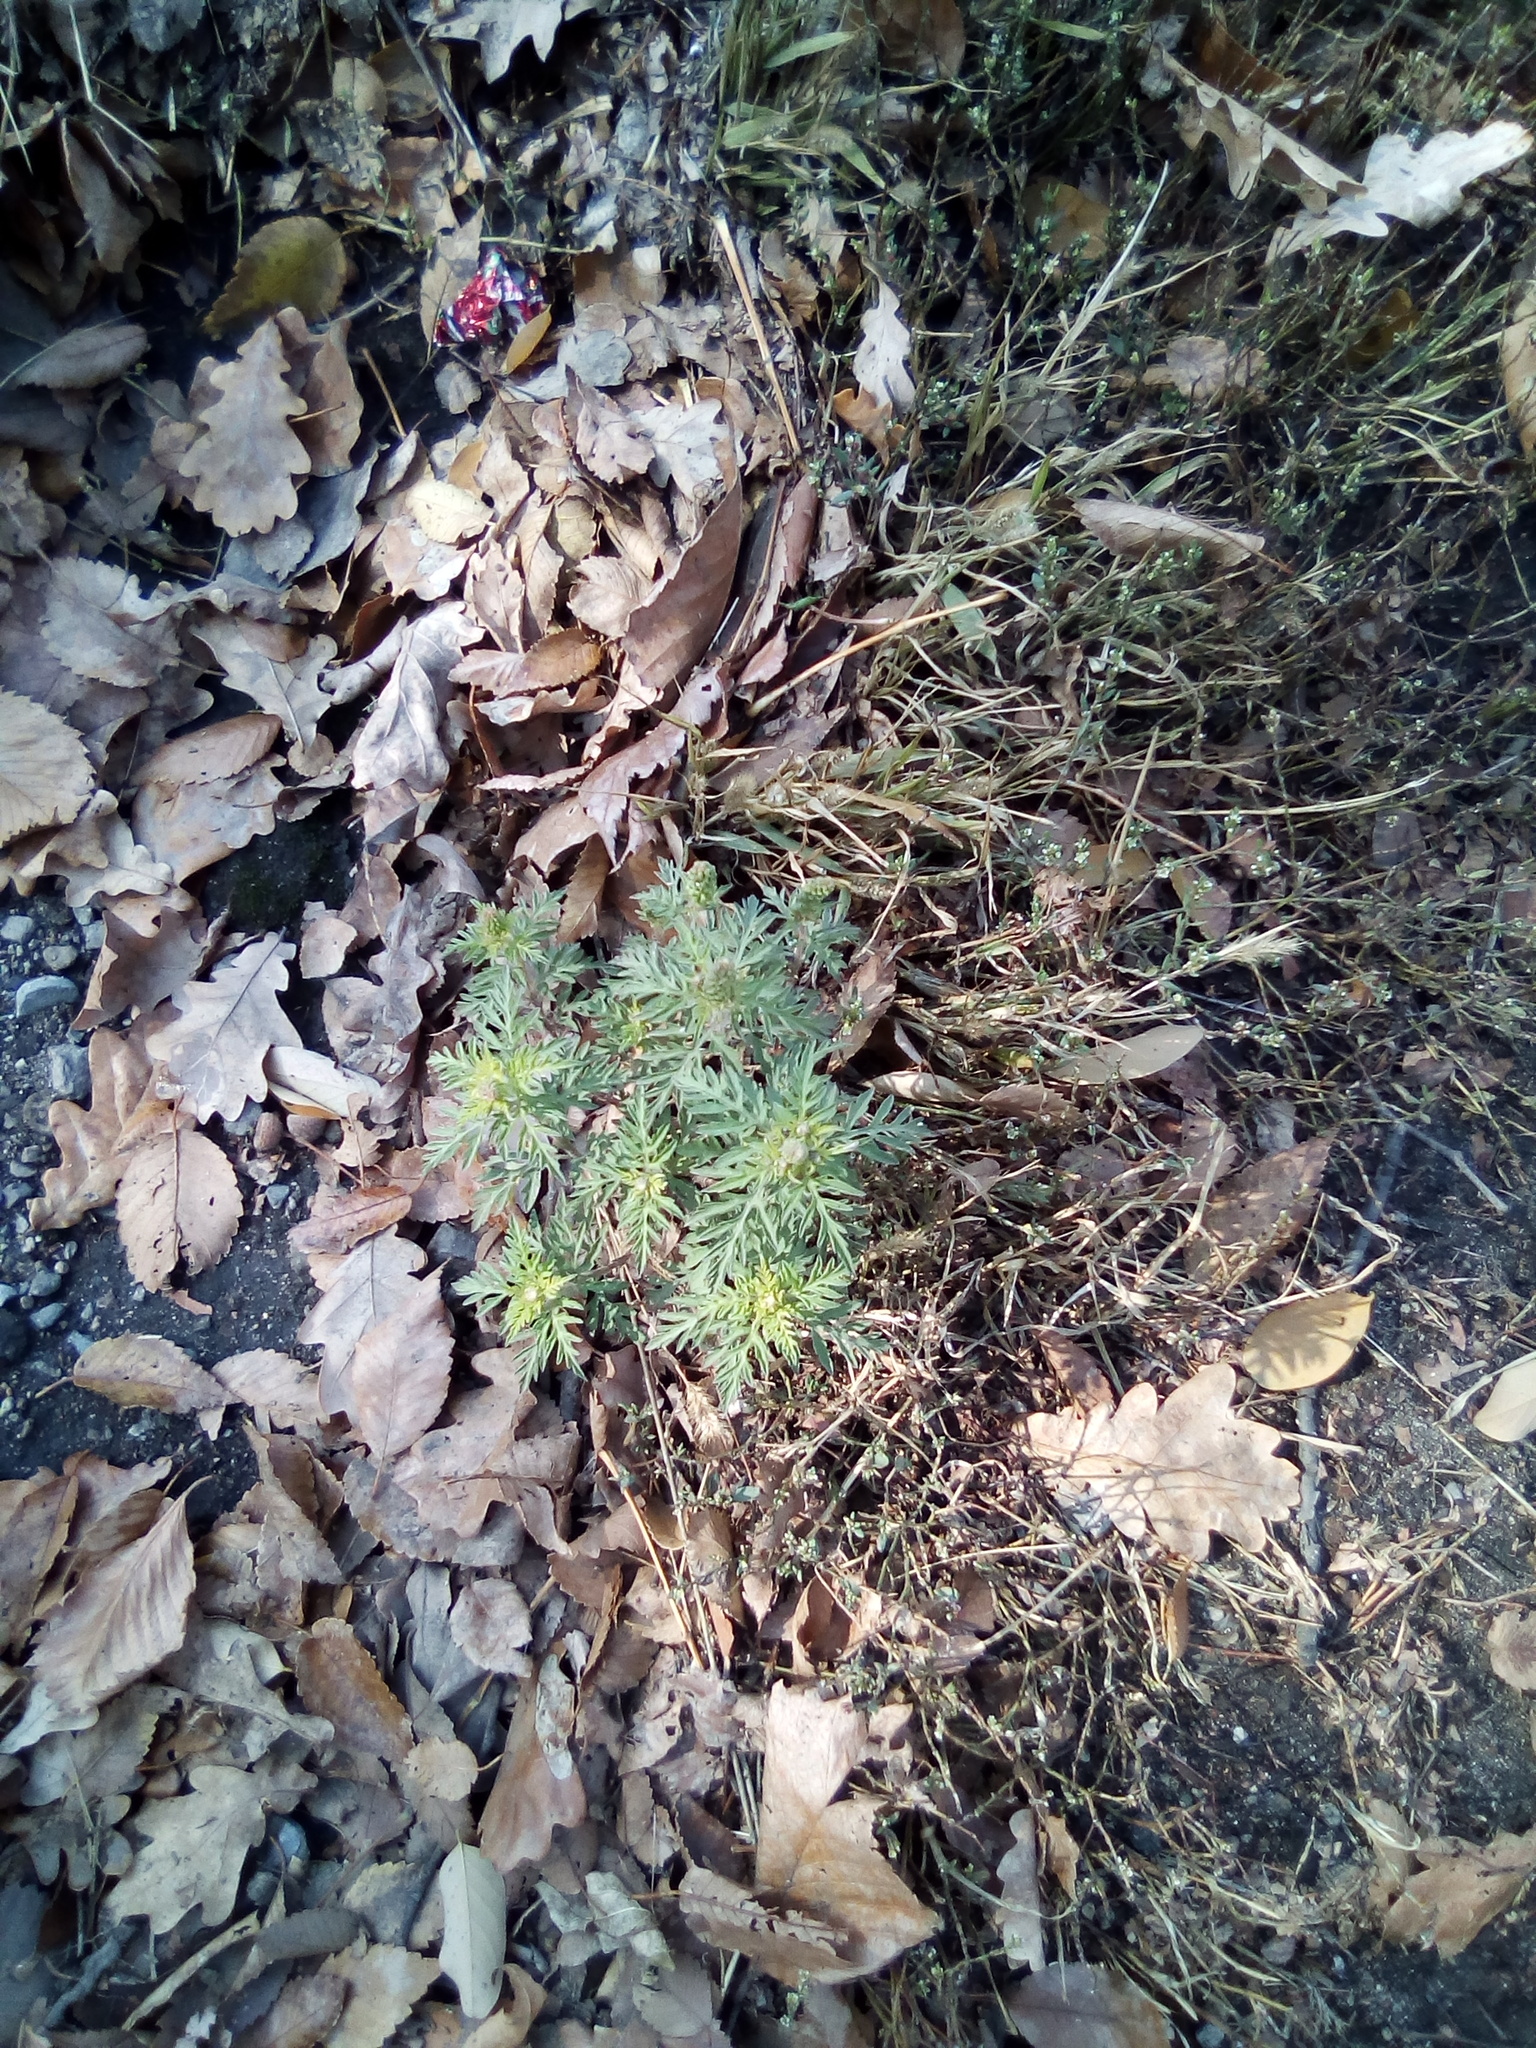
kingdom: Plantae
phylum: Tracheophyta
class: Magnoliopsida
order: Asterales
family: Asteraceae
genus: Ambrosia
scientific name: Ambrosia artemisiifolia
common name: Annual ragweed
